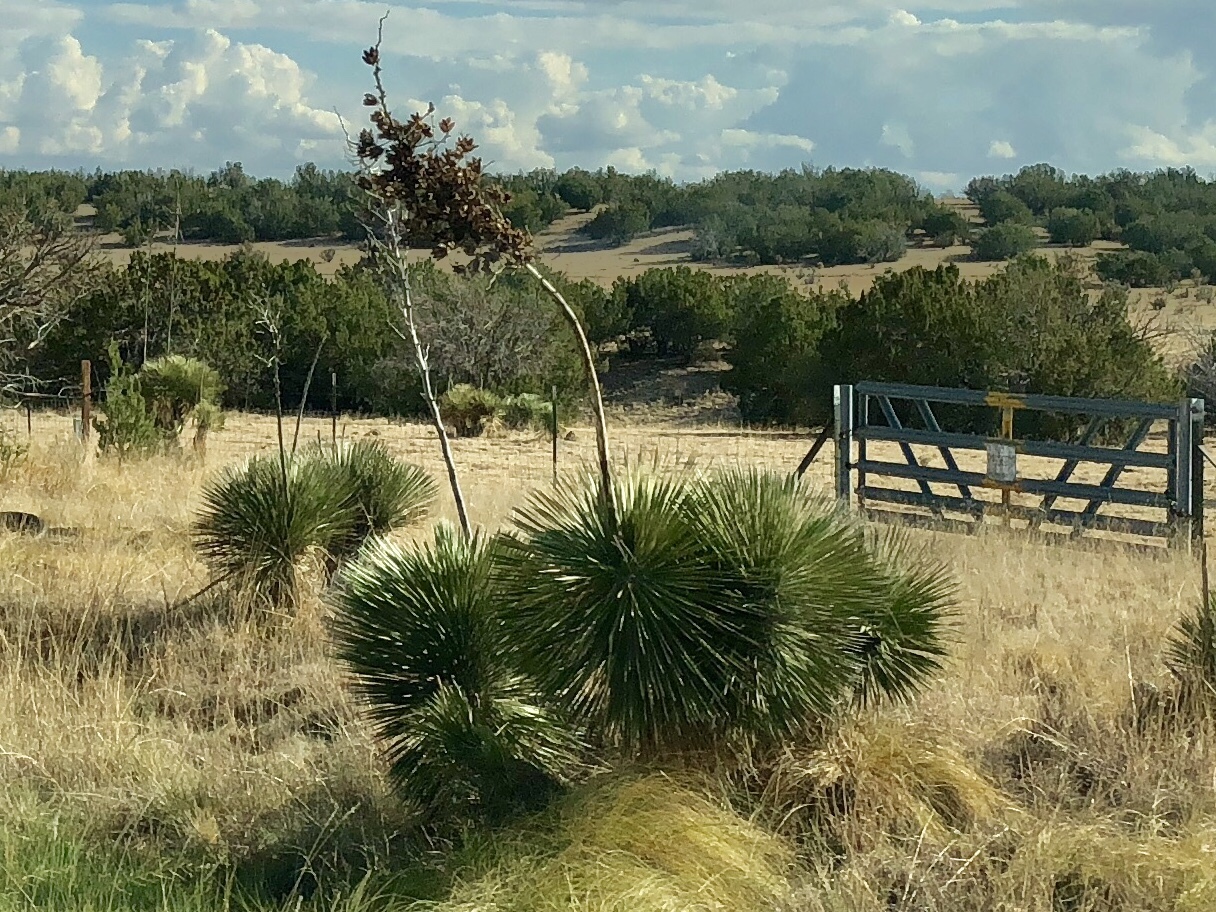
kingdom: Plantae
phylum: Tracheophyta
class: Liliopsida
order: Asparagales
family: Asparagaceae
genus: Yucca
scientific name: Yucca elata
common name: Palmella
